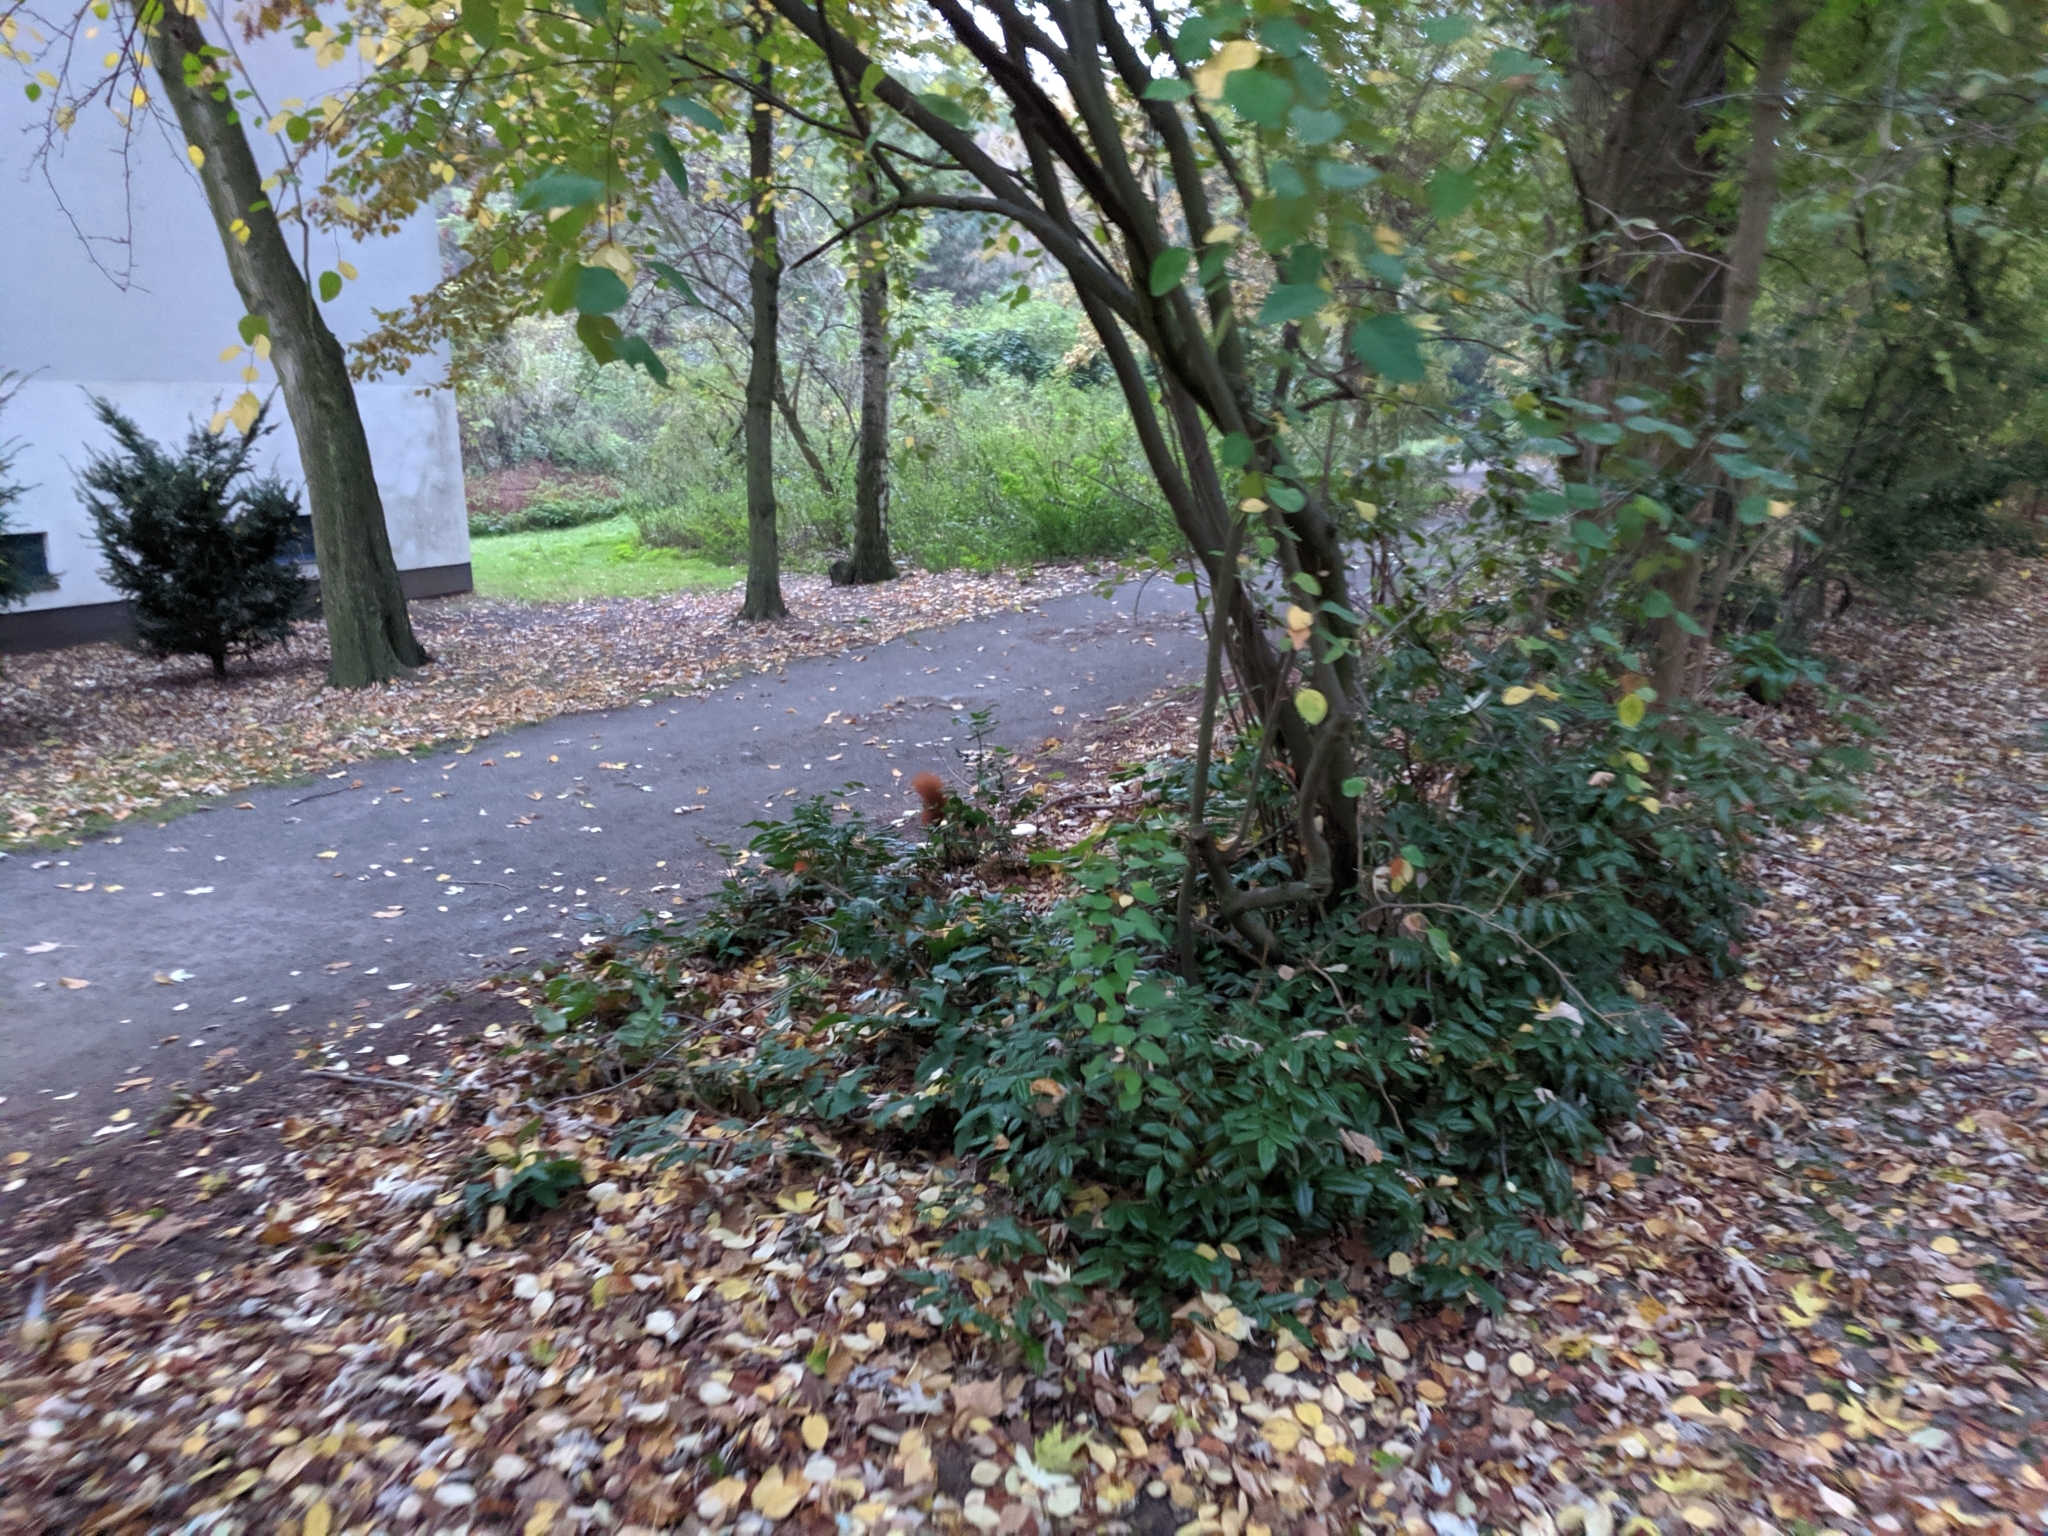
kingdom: Animalia
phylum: Chordata
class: Mammalia
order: Rodentia
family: Sciuridae
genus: Sciurus
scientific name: Sciurus vulgaris
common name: Eurasian red squirrel
